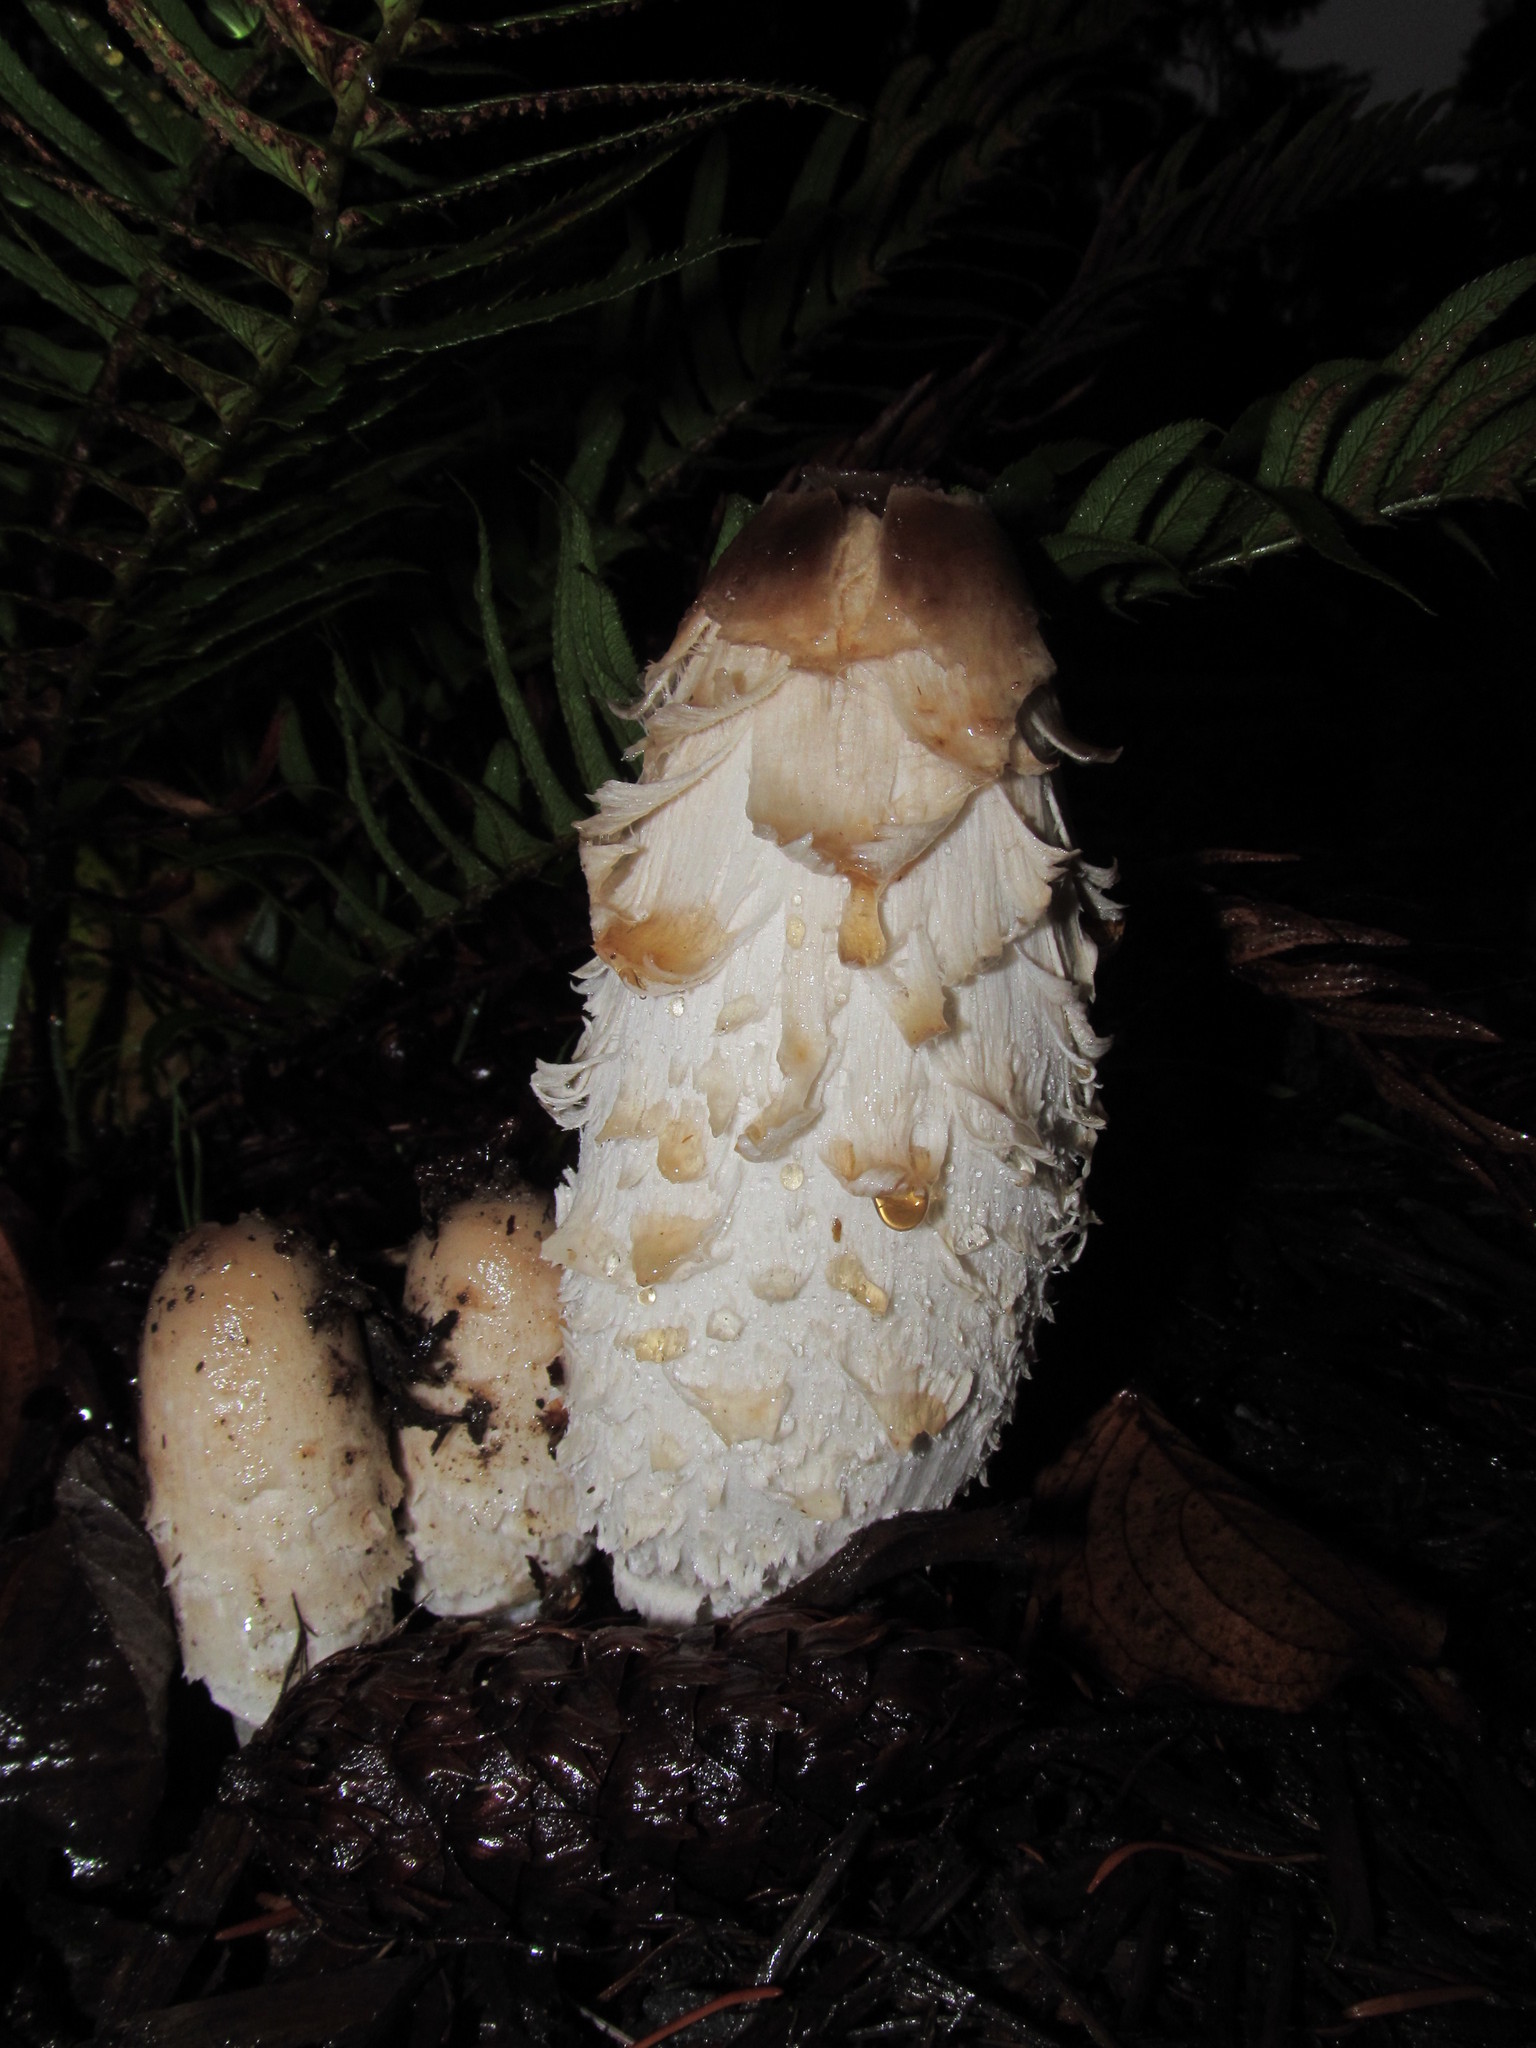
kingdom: Fungi
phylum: Basidiomycota
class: Agaricomycetes
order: Agaricales
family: Agaricaceae
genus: Coprinus
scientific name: Coprinus comatus
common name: Lawyer's wig
